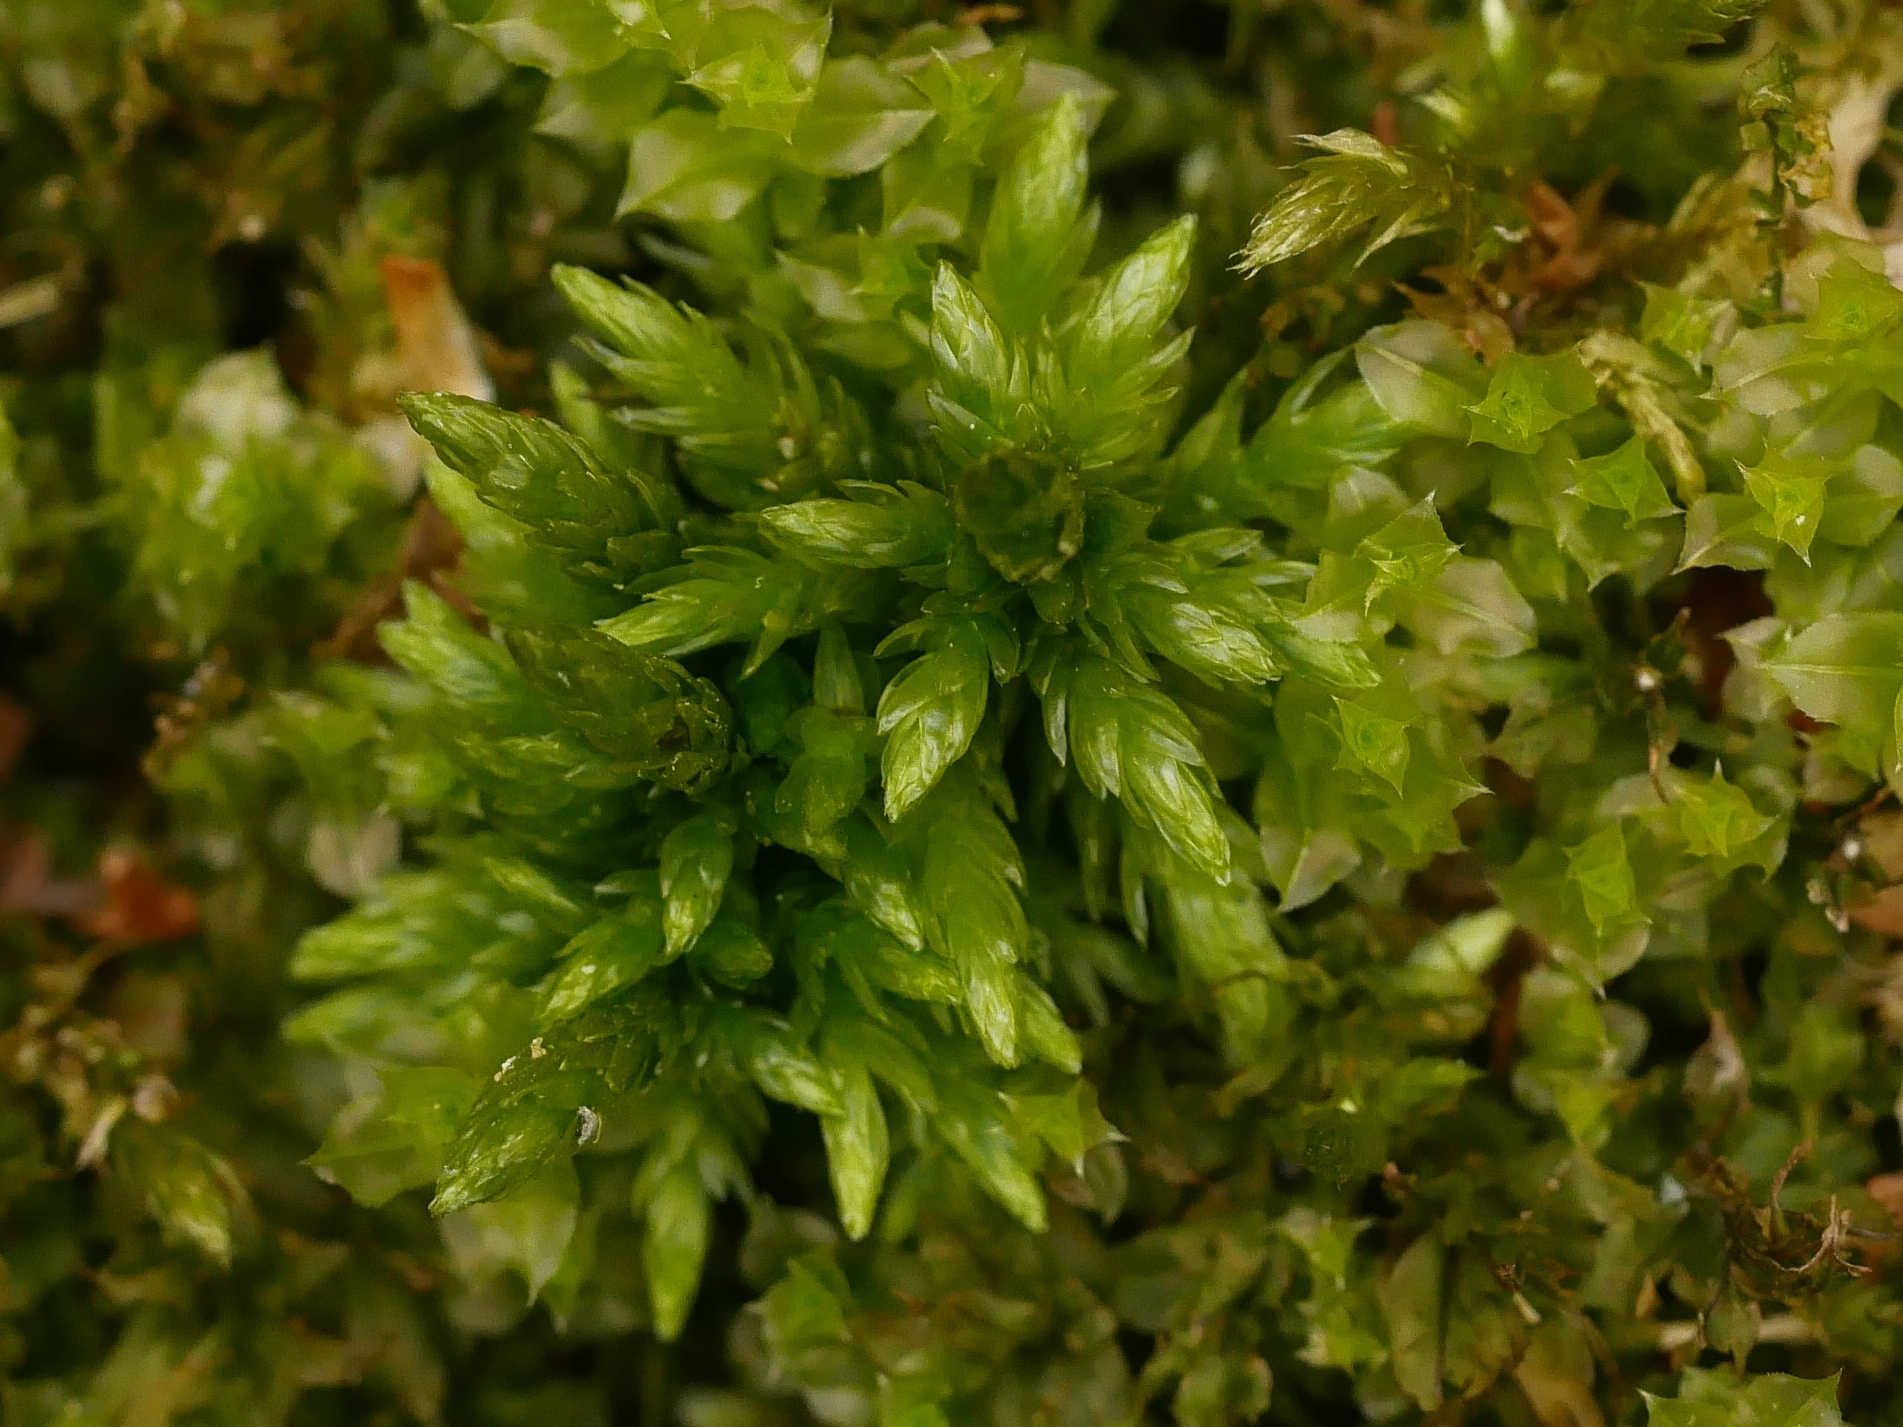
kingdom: Plantae
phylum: Bryophyta
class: Bryopsida
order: Hypnales
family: Climaciaceae
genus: Climacium
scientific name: Climacium dendroides
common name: Northern tree moss
